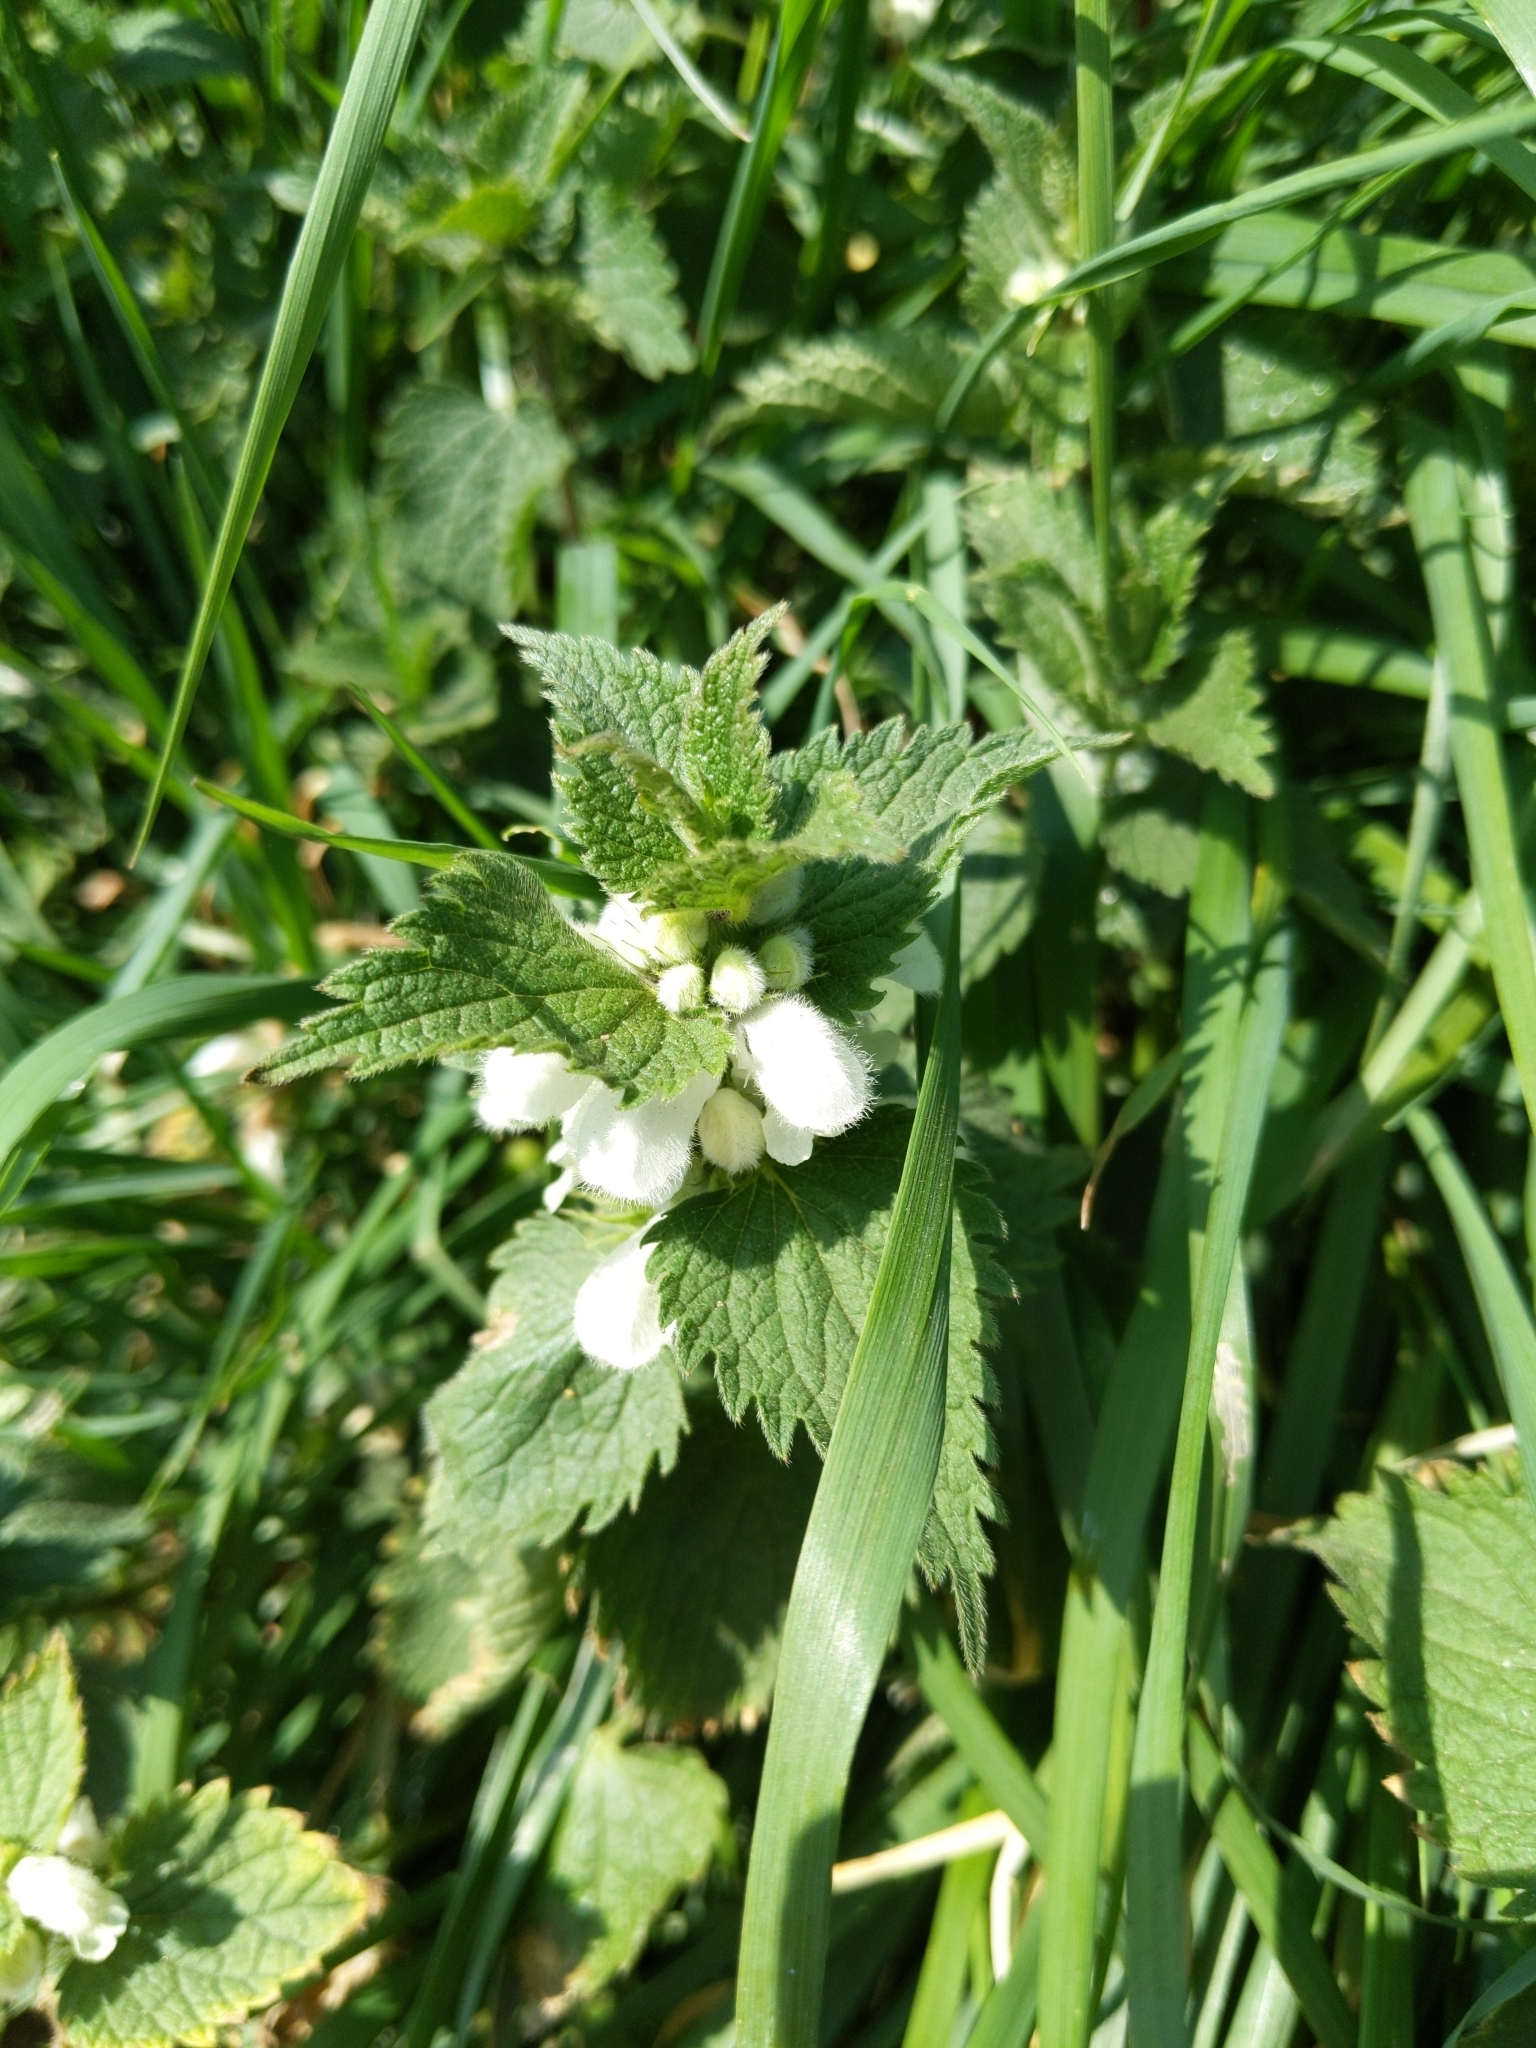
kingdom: Plantae
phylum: Tracheophyta
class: Magnoliopsida
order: Lamiales
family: Lamiaceae
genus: Lamium
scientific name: Lamium album
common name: White dead-nettle
